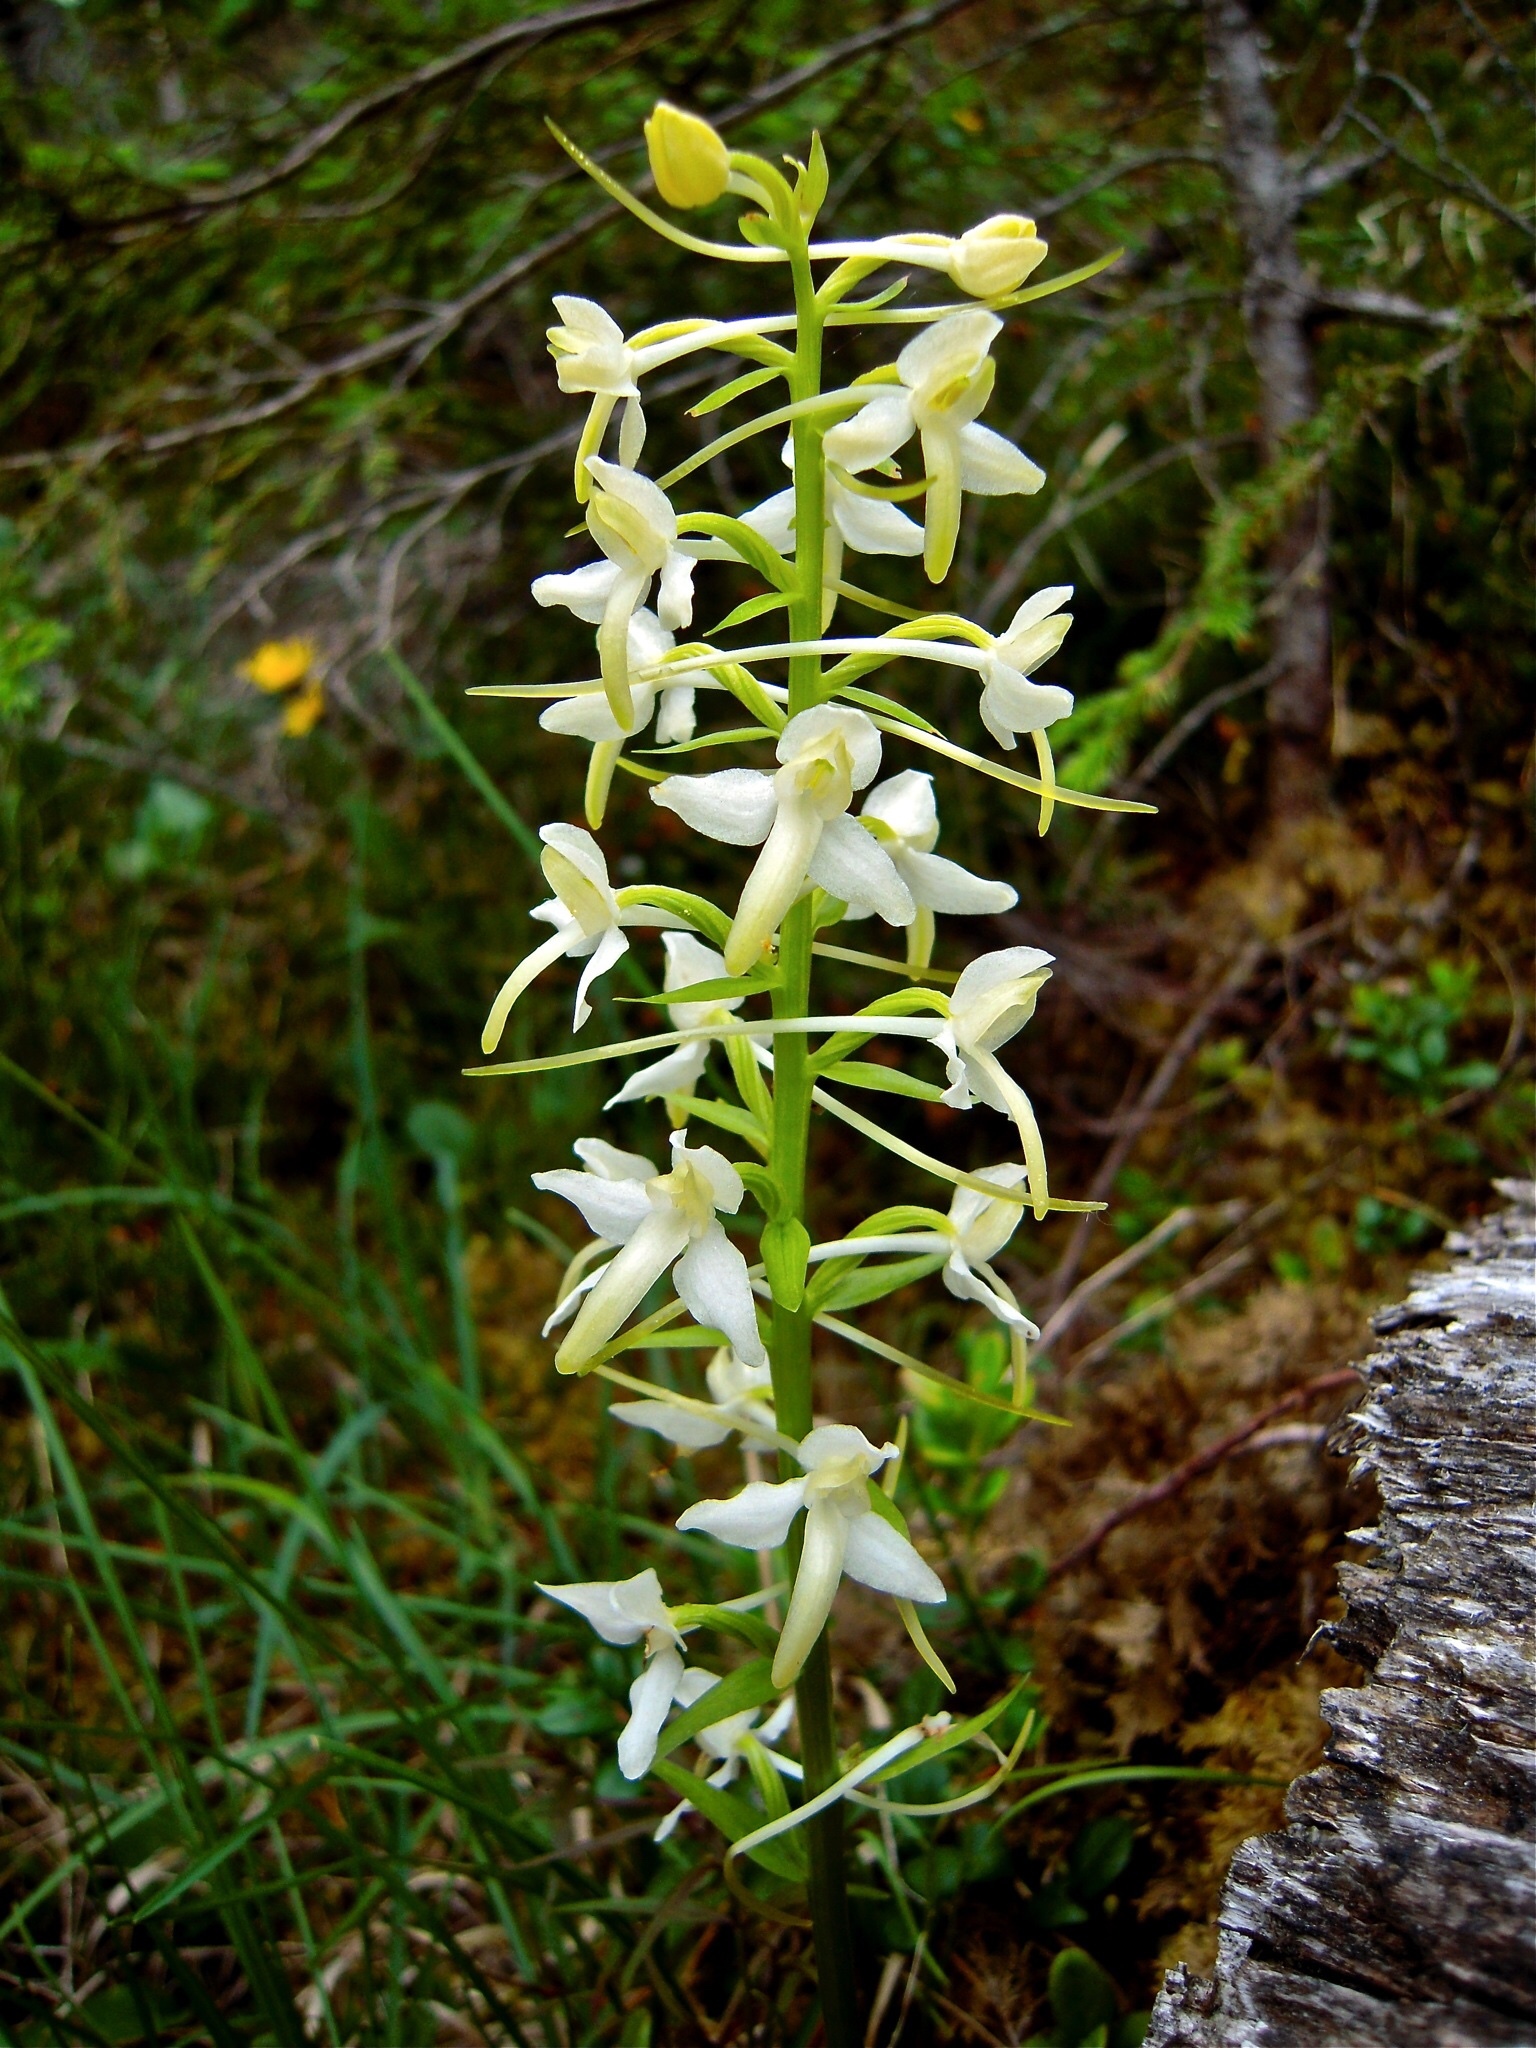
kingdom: Plantae
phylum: Tracheophyta
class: Liliopsida
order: Asparagales
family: Orchidaceae
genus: Platanthera
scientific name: Platanthera bifolia
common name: Lesser butterfly-orchid
